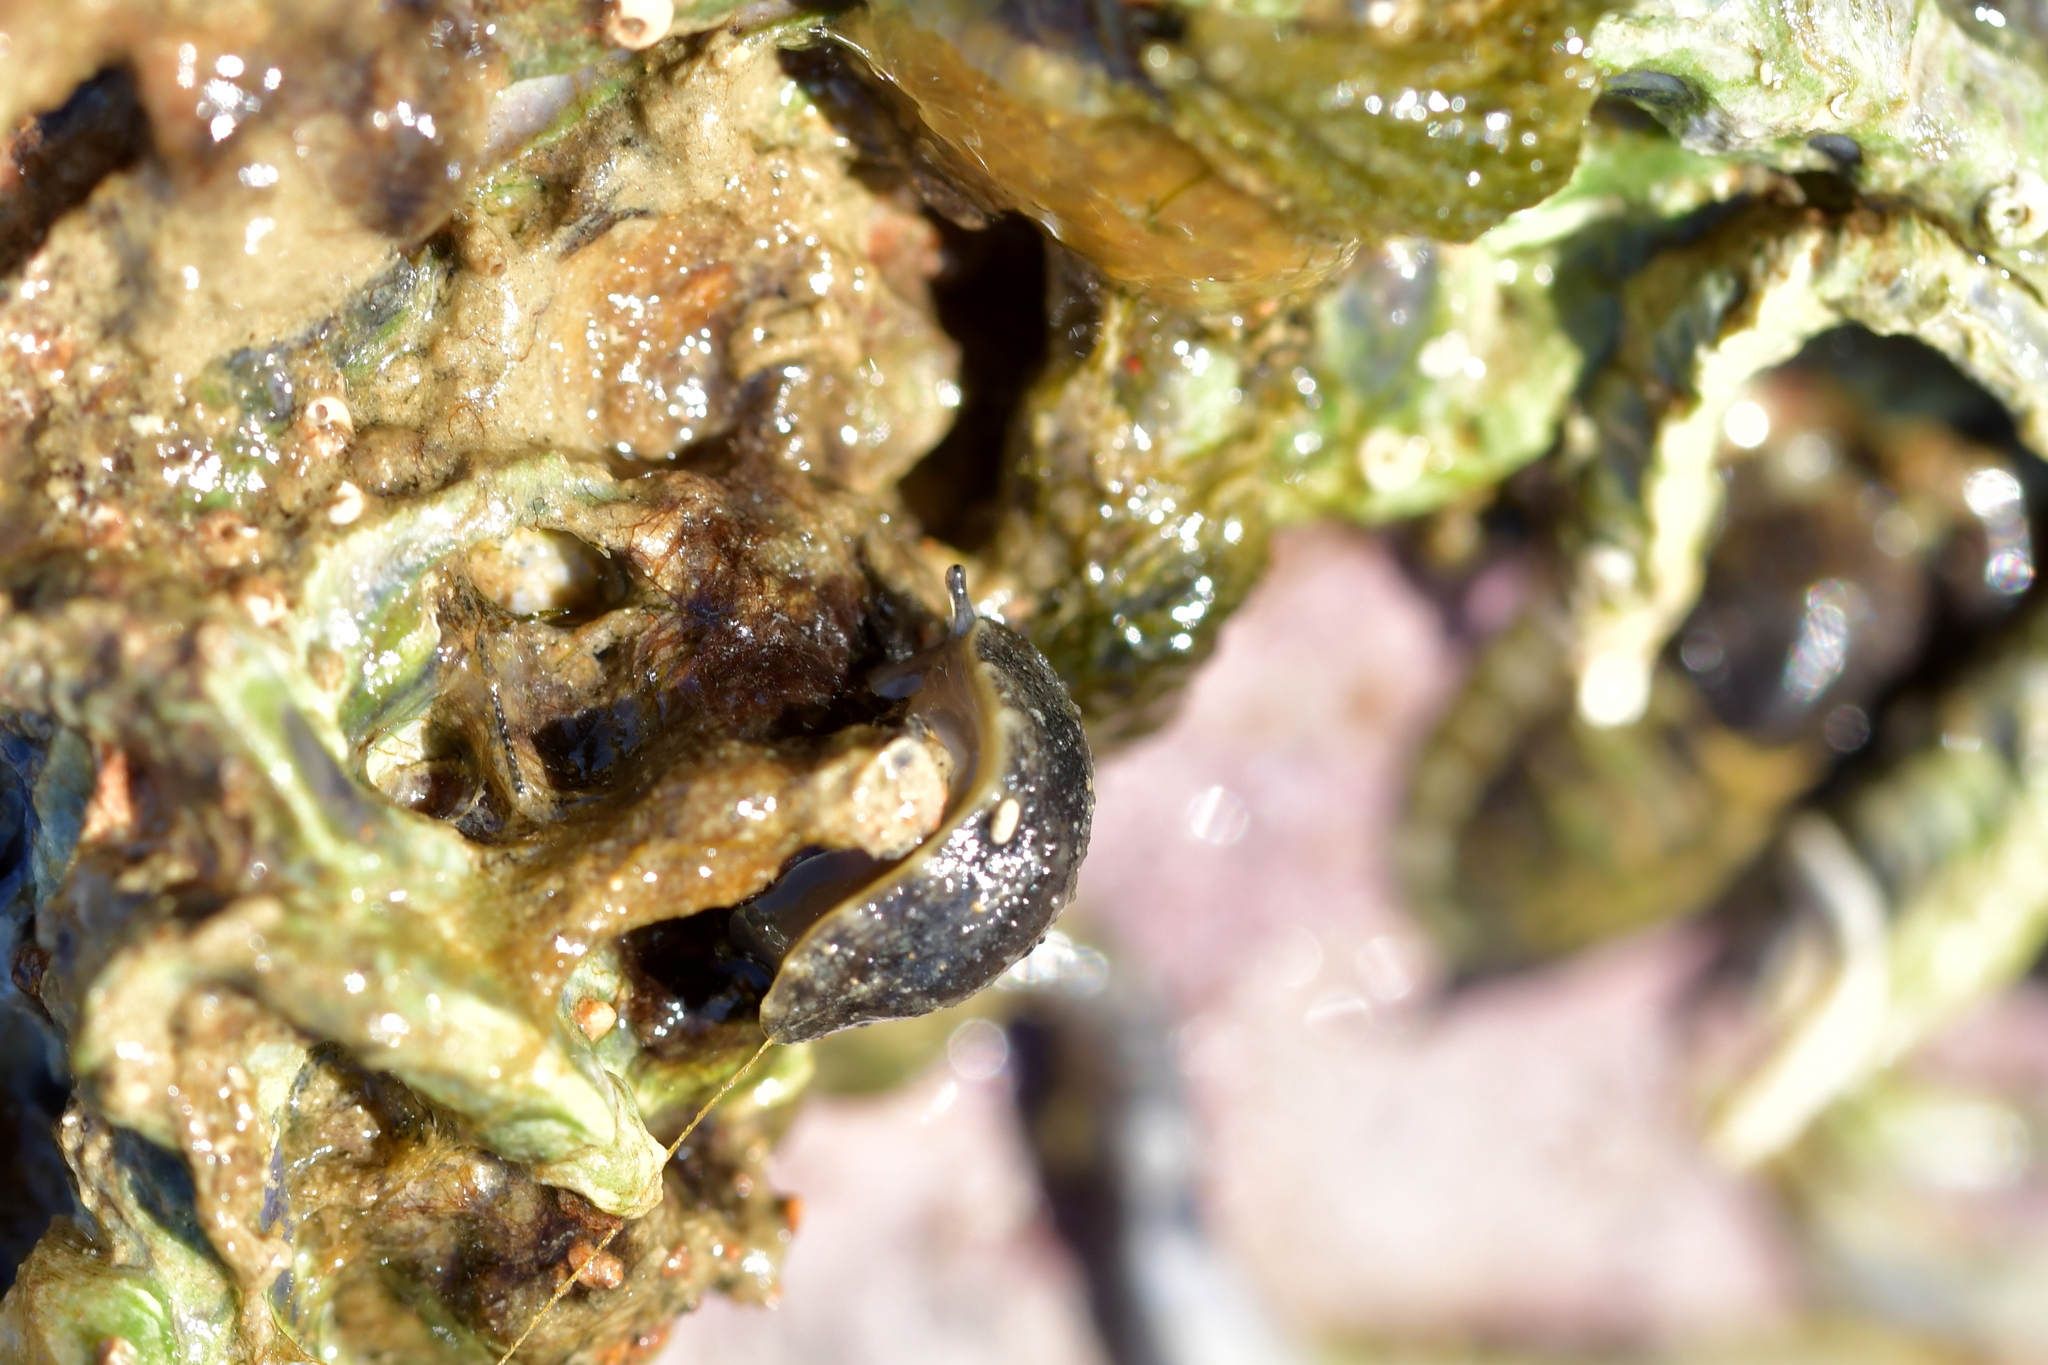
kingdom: Animalia
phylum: Mollusca
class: Gastropoda
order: Systellommatophora
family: Onchidiidae
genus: Onchidella
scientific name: Onchidella nigricans
